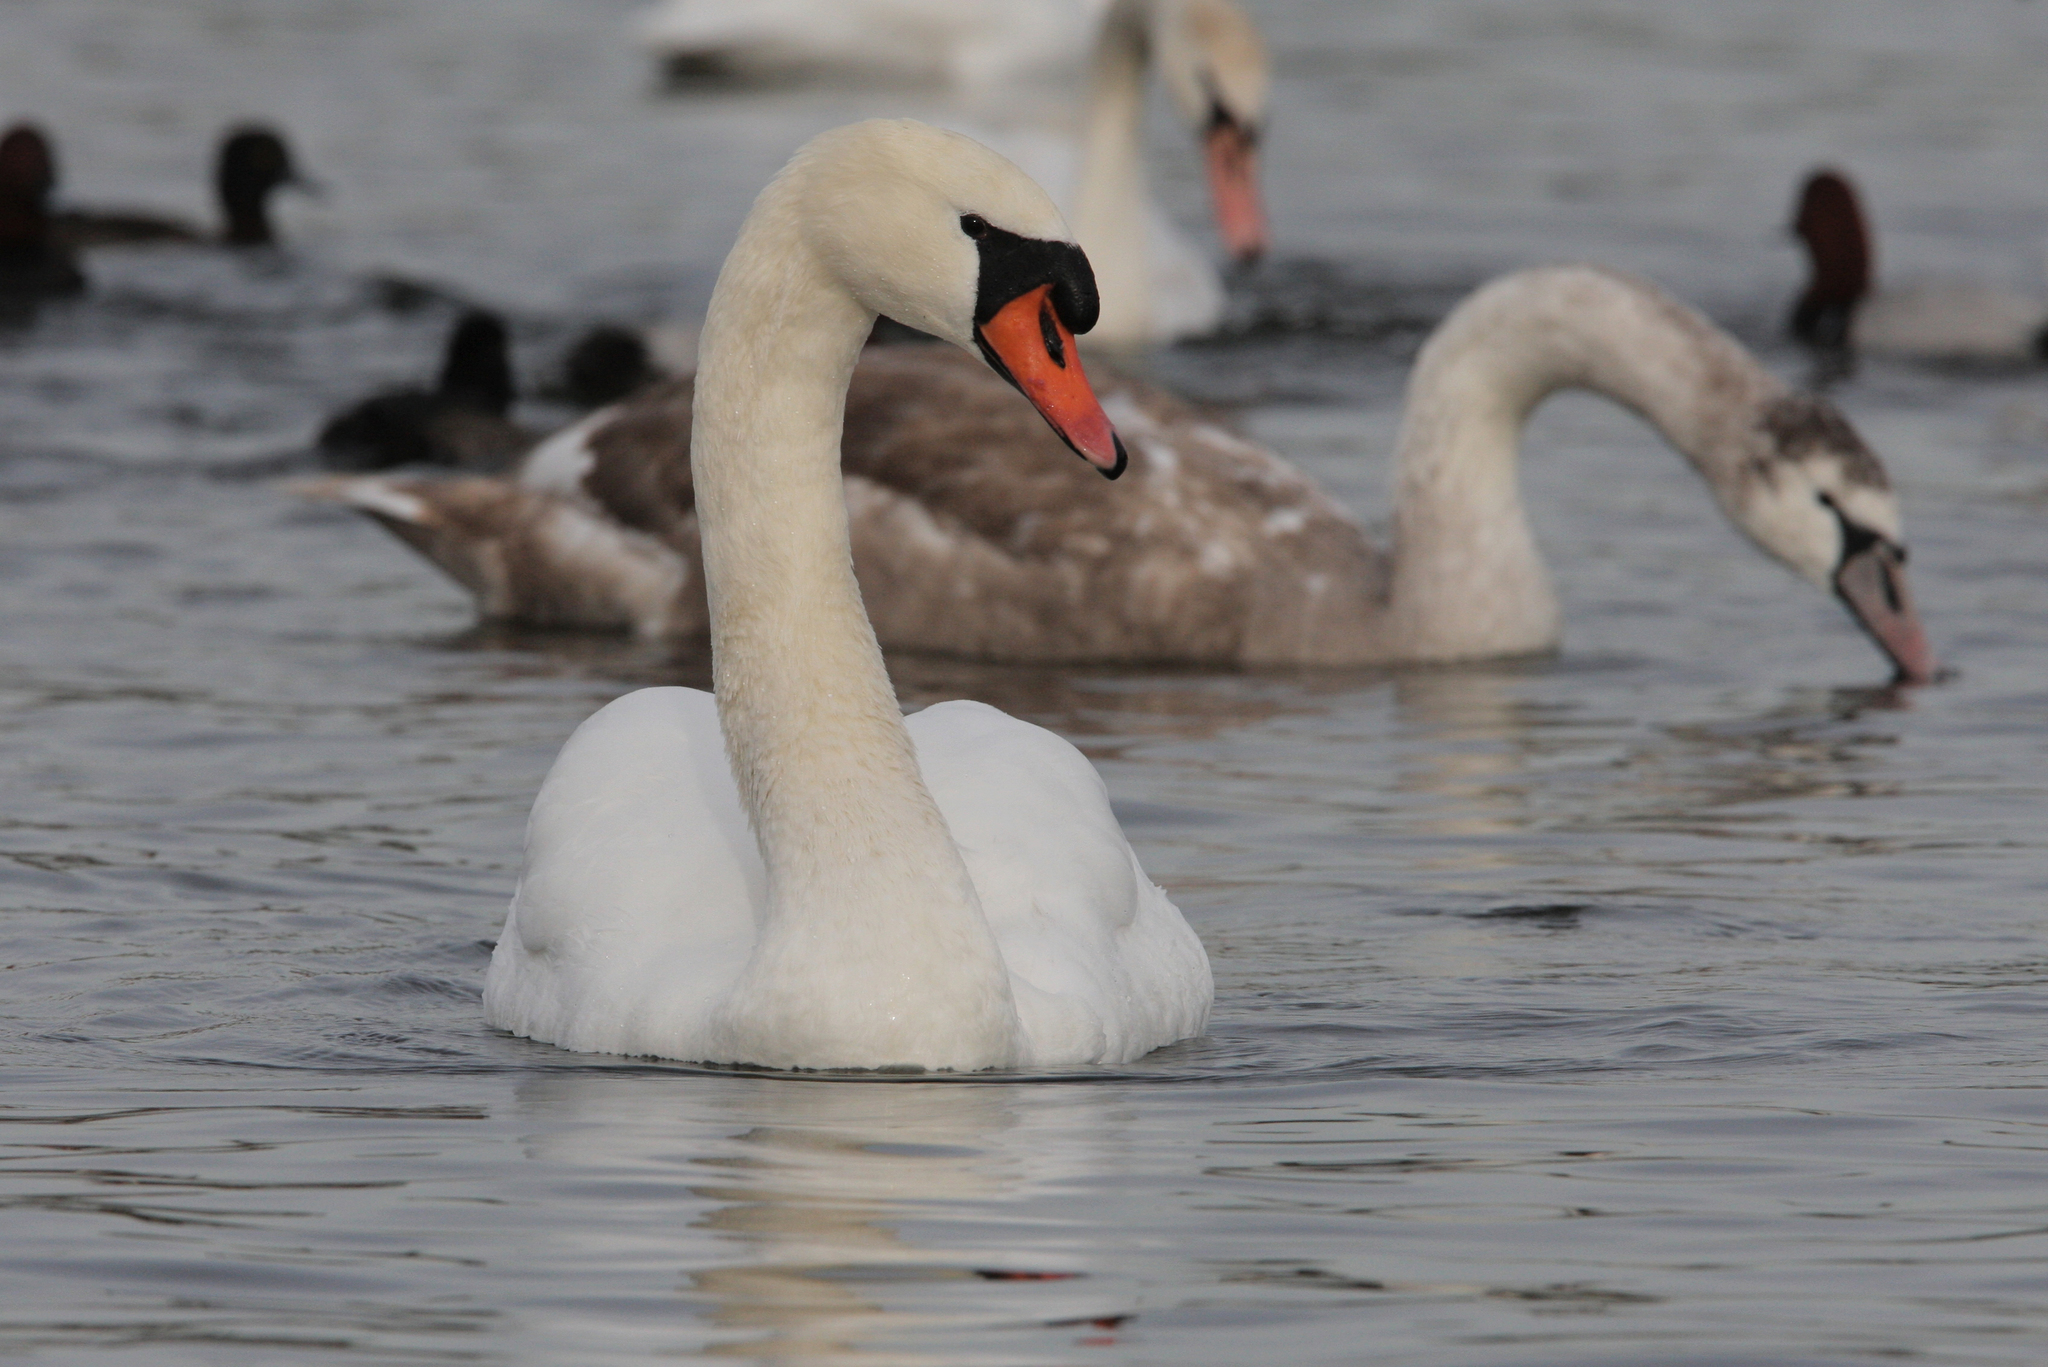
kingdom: Animalia
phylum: Chordata
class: Aves
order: Anseriformes
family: Anatidae
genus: Cygnus
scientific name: Cygnus olor
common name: Mute swan
